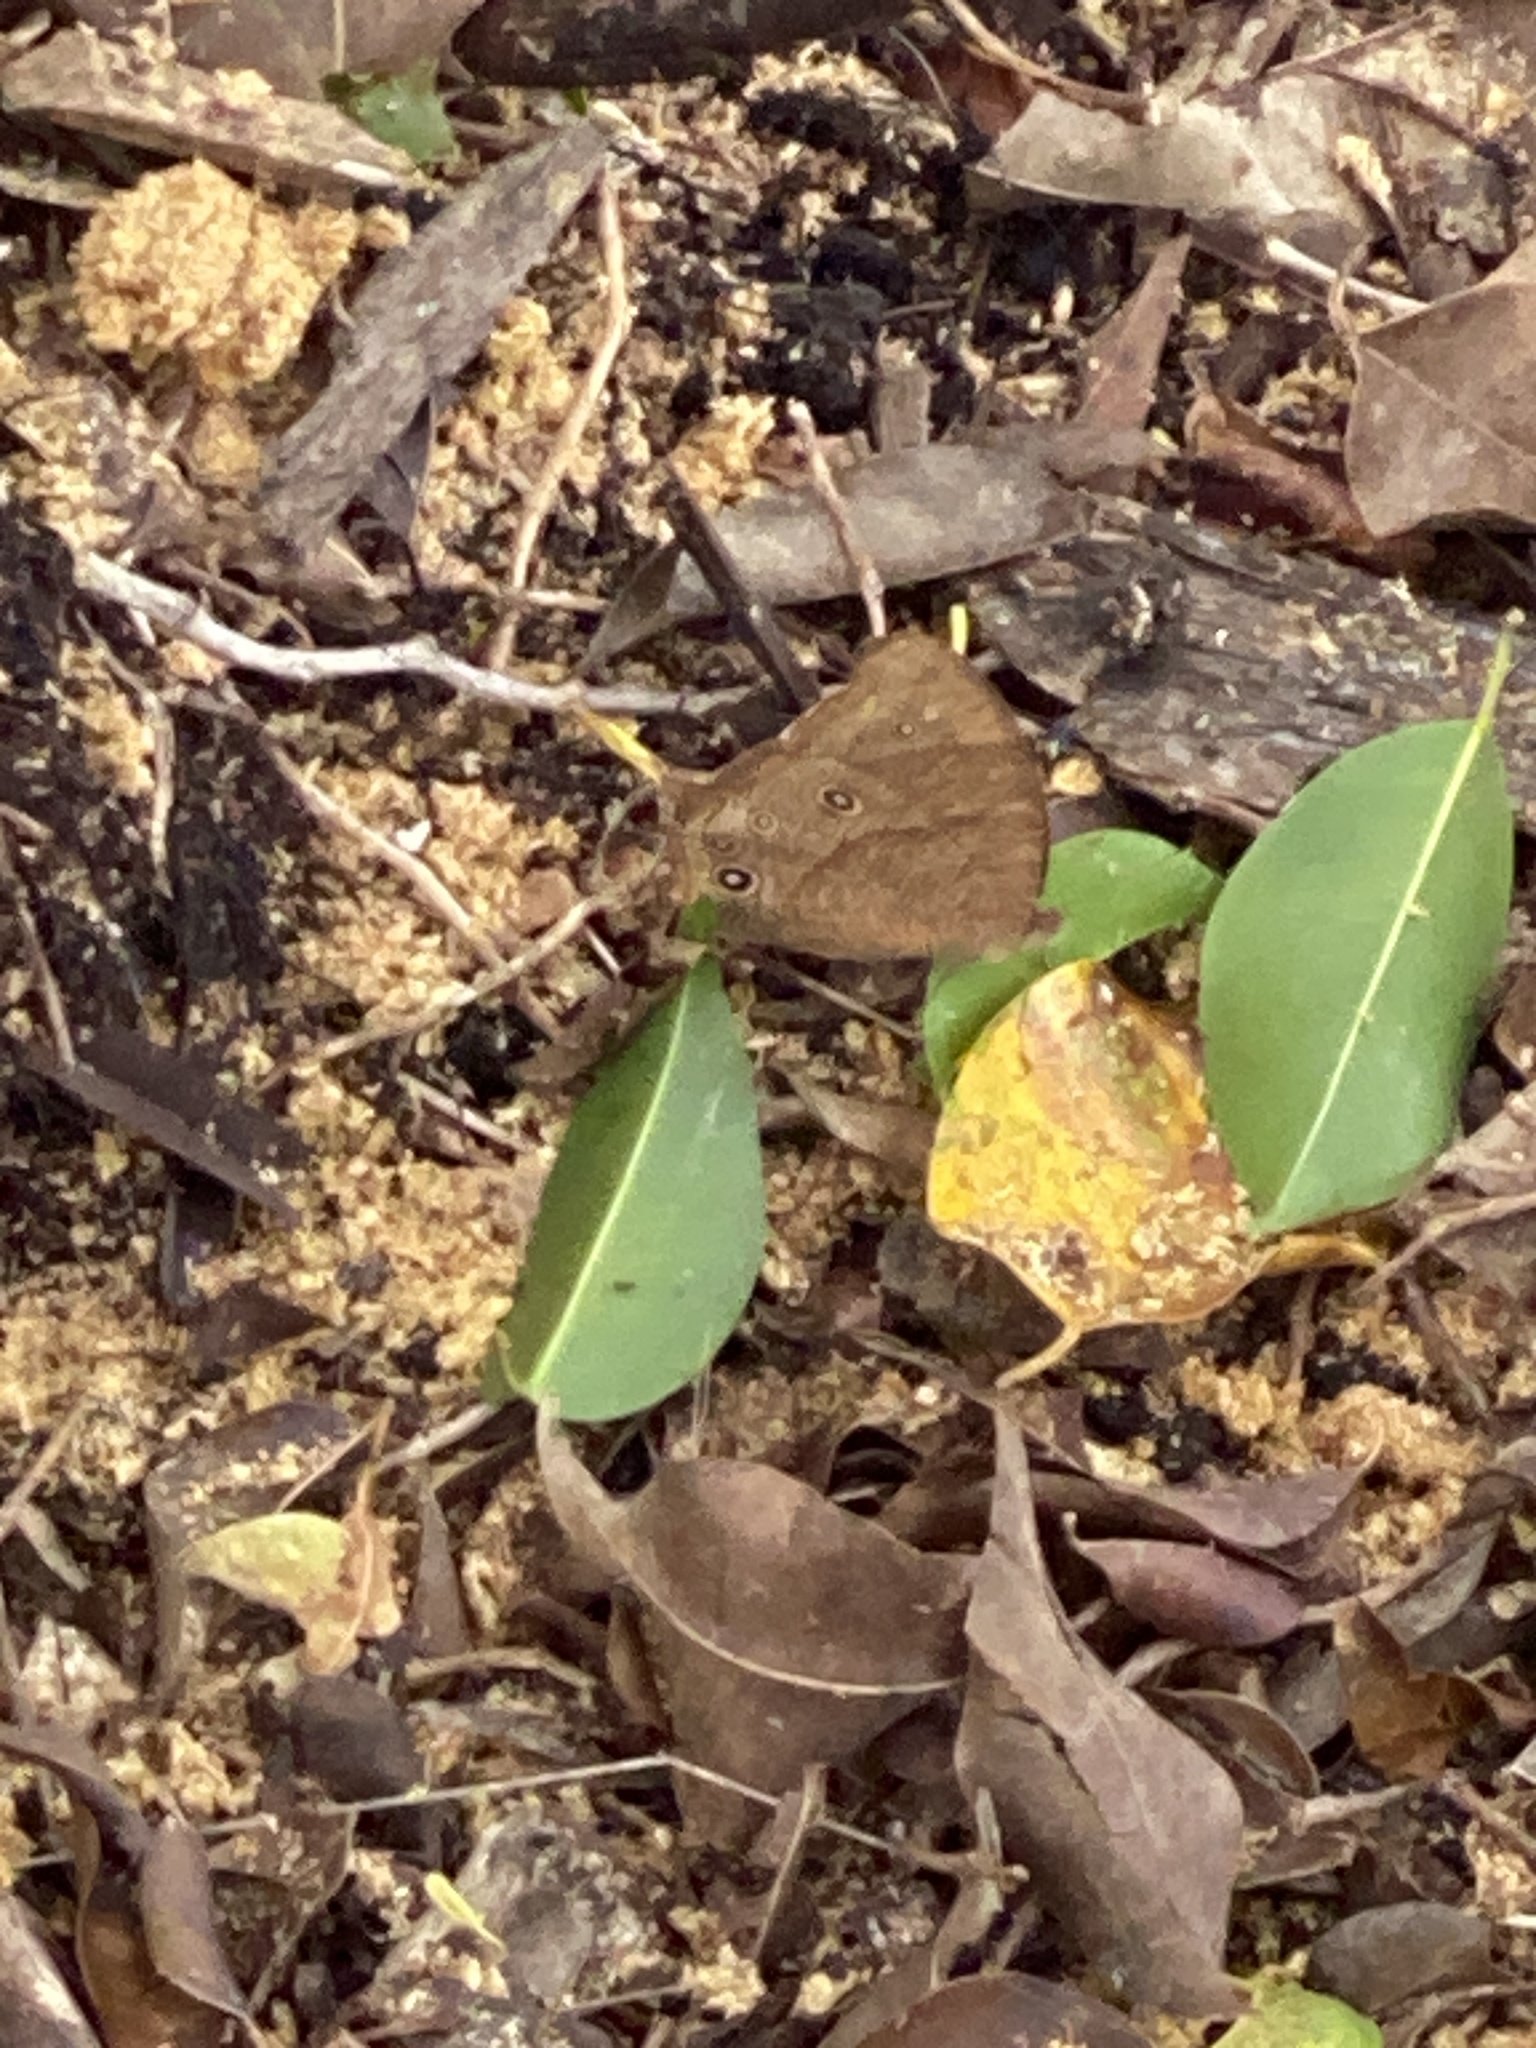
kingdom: Animalia
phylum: Arthropoda
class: Insecta
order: Lepidoptera
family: Nymphalidae
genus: Melanitis
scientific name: Melanitis leda
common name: Twilight brown
